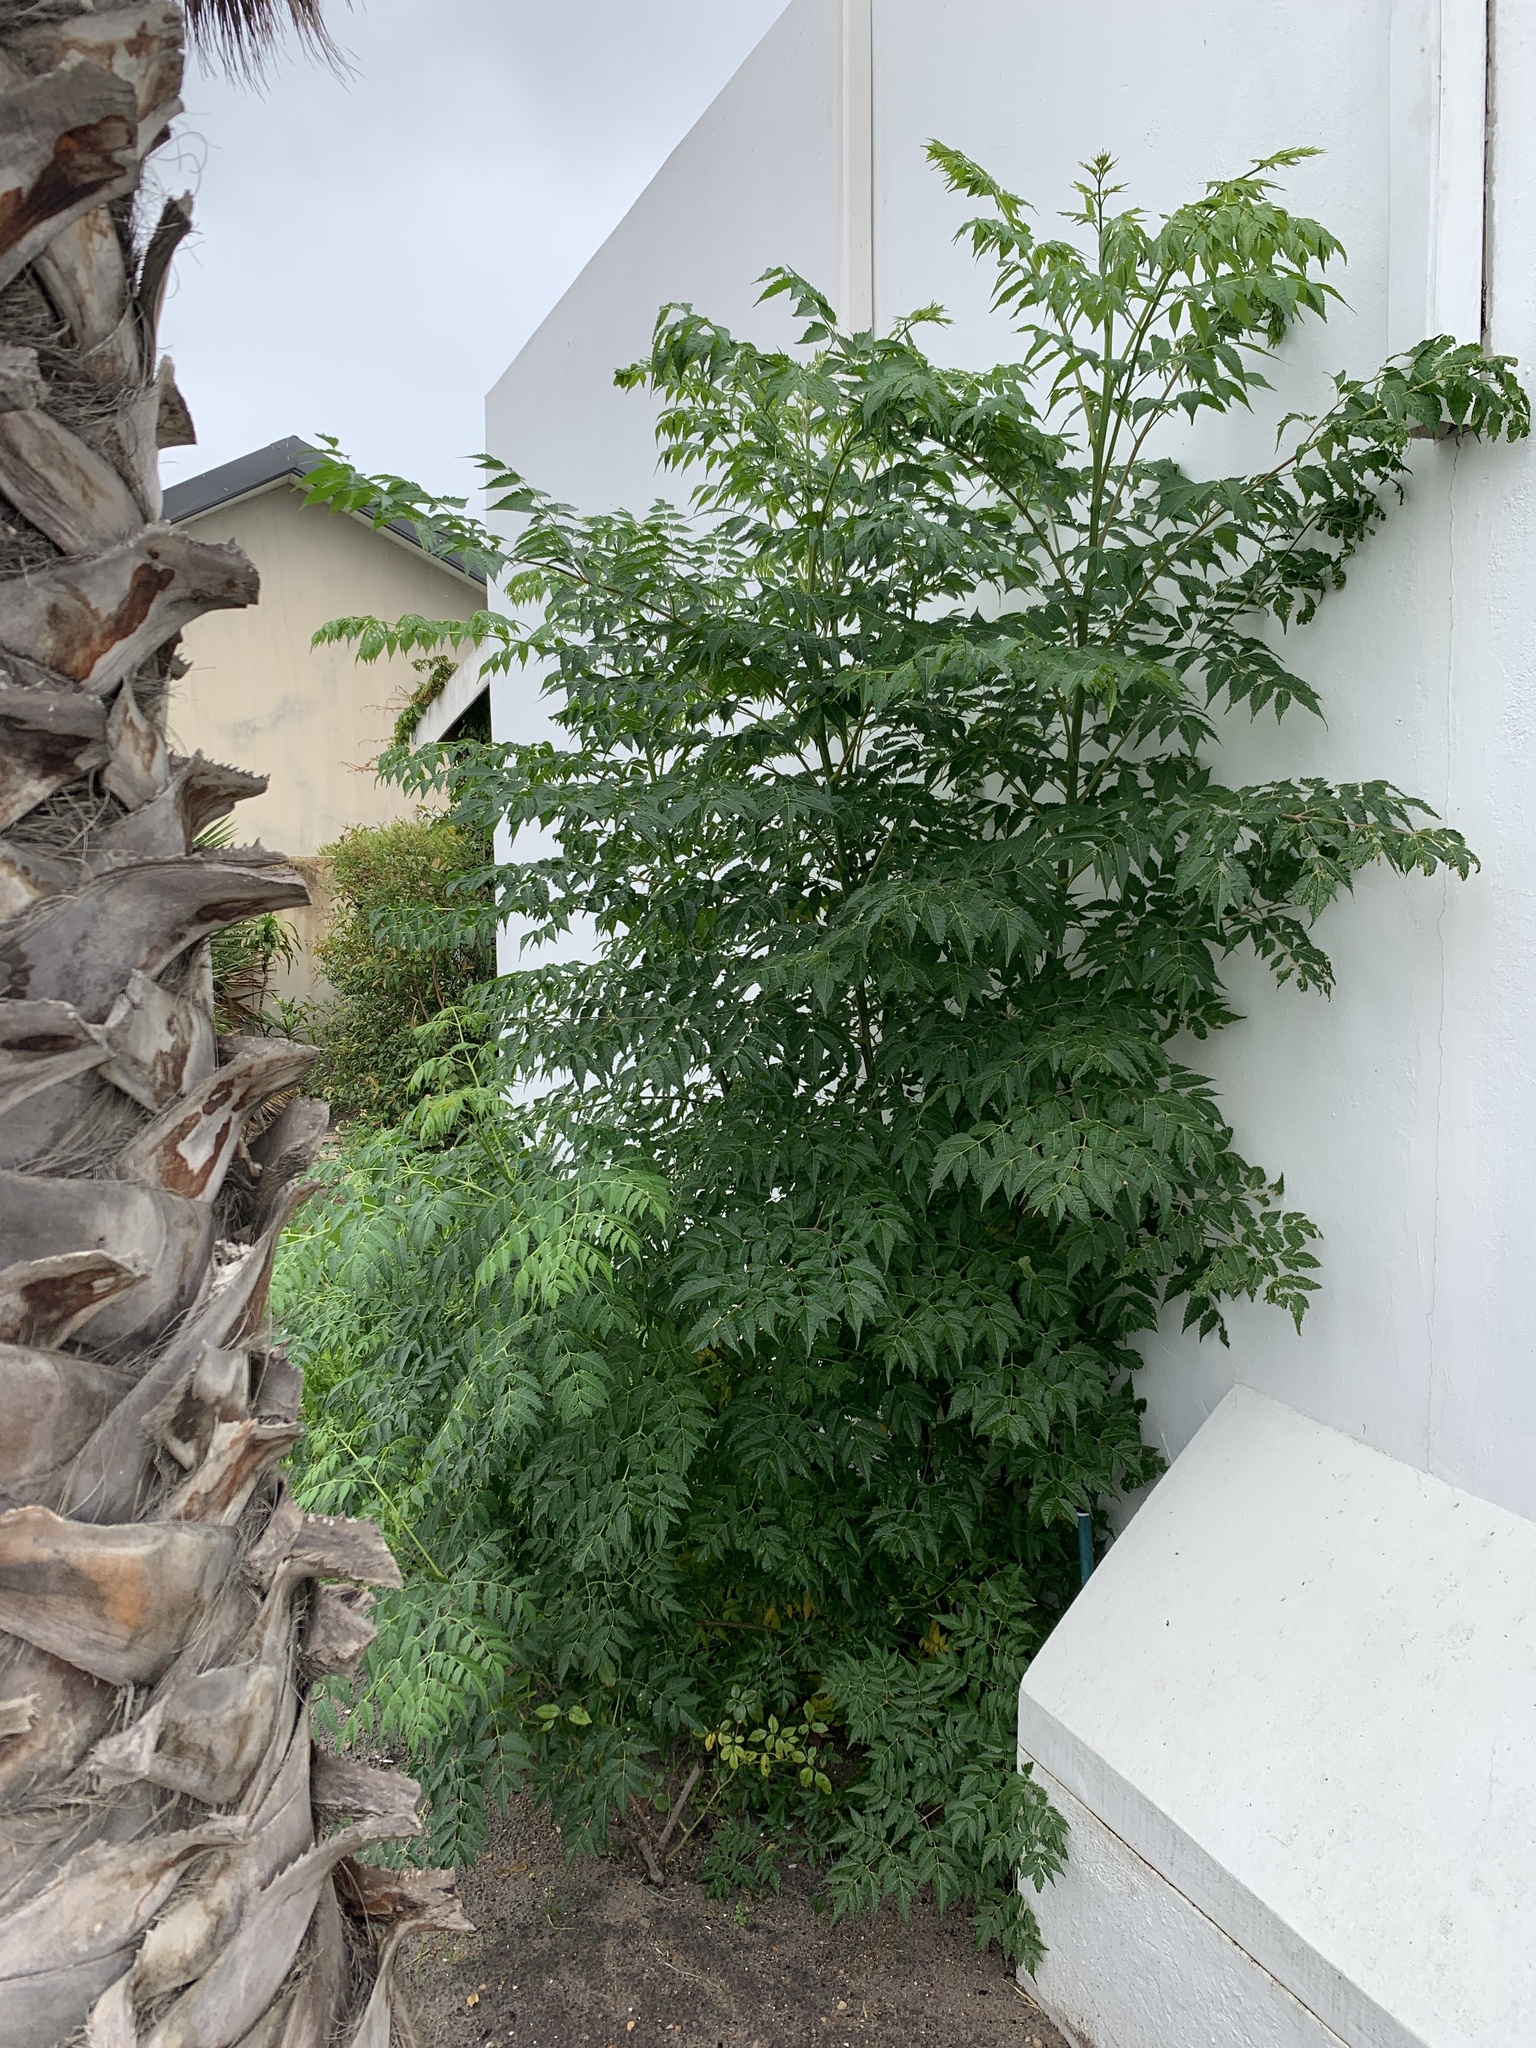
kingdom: Plantae
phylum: Tracheophyta
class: Magnoliopsida
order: Sapindales
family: Meliaceae
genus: Melia
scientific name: Melia azedarach
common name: Chinaberrytree
